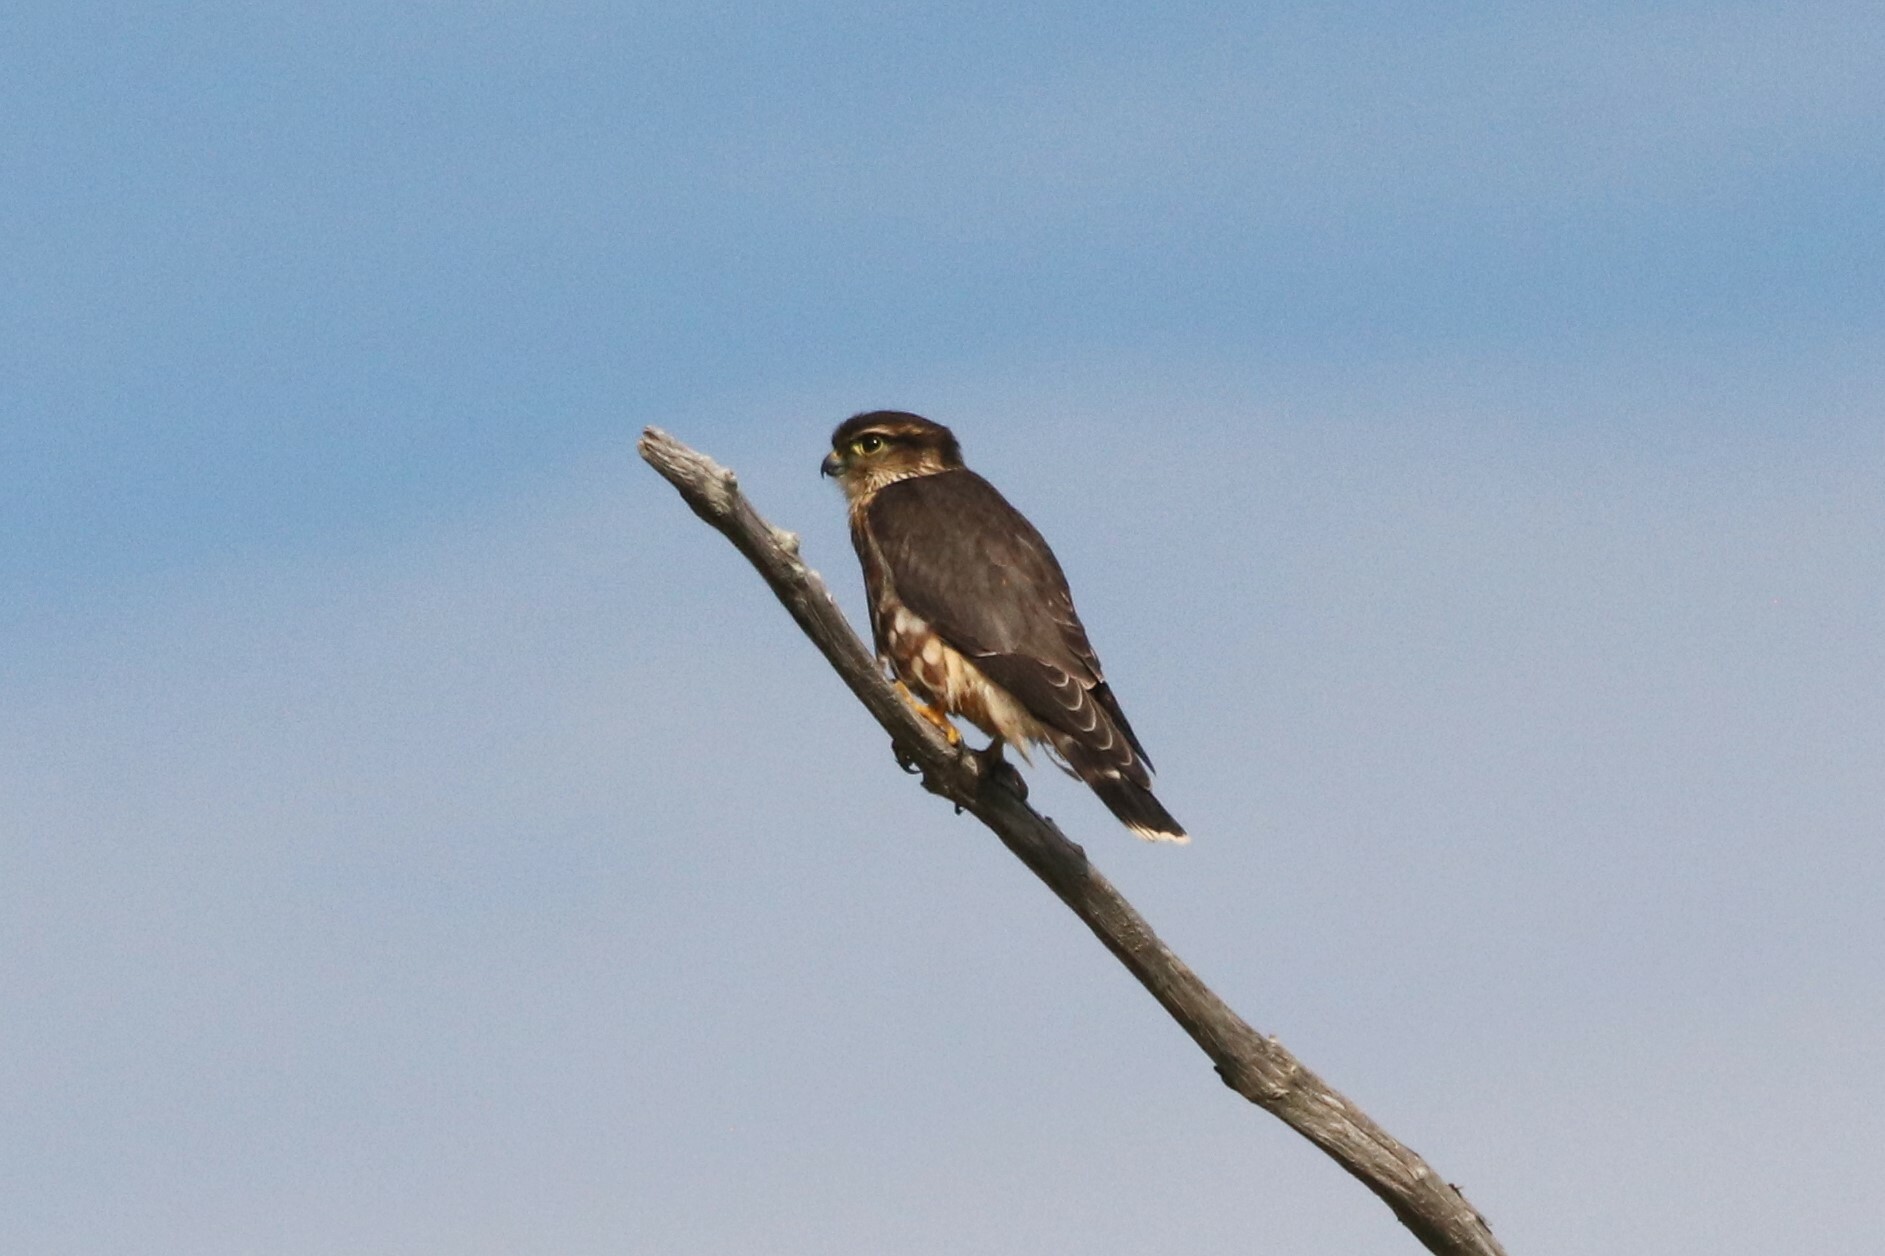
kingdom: Animalia
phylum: Chordata
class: Aves
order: Falconiformes
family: Falconidae
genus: Falco
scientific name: Falco columbarius
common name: Merlin
